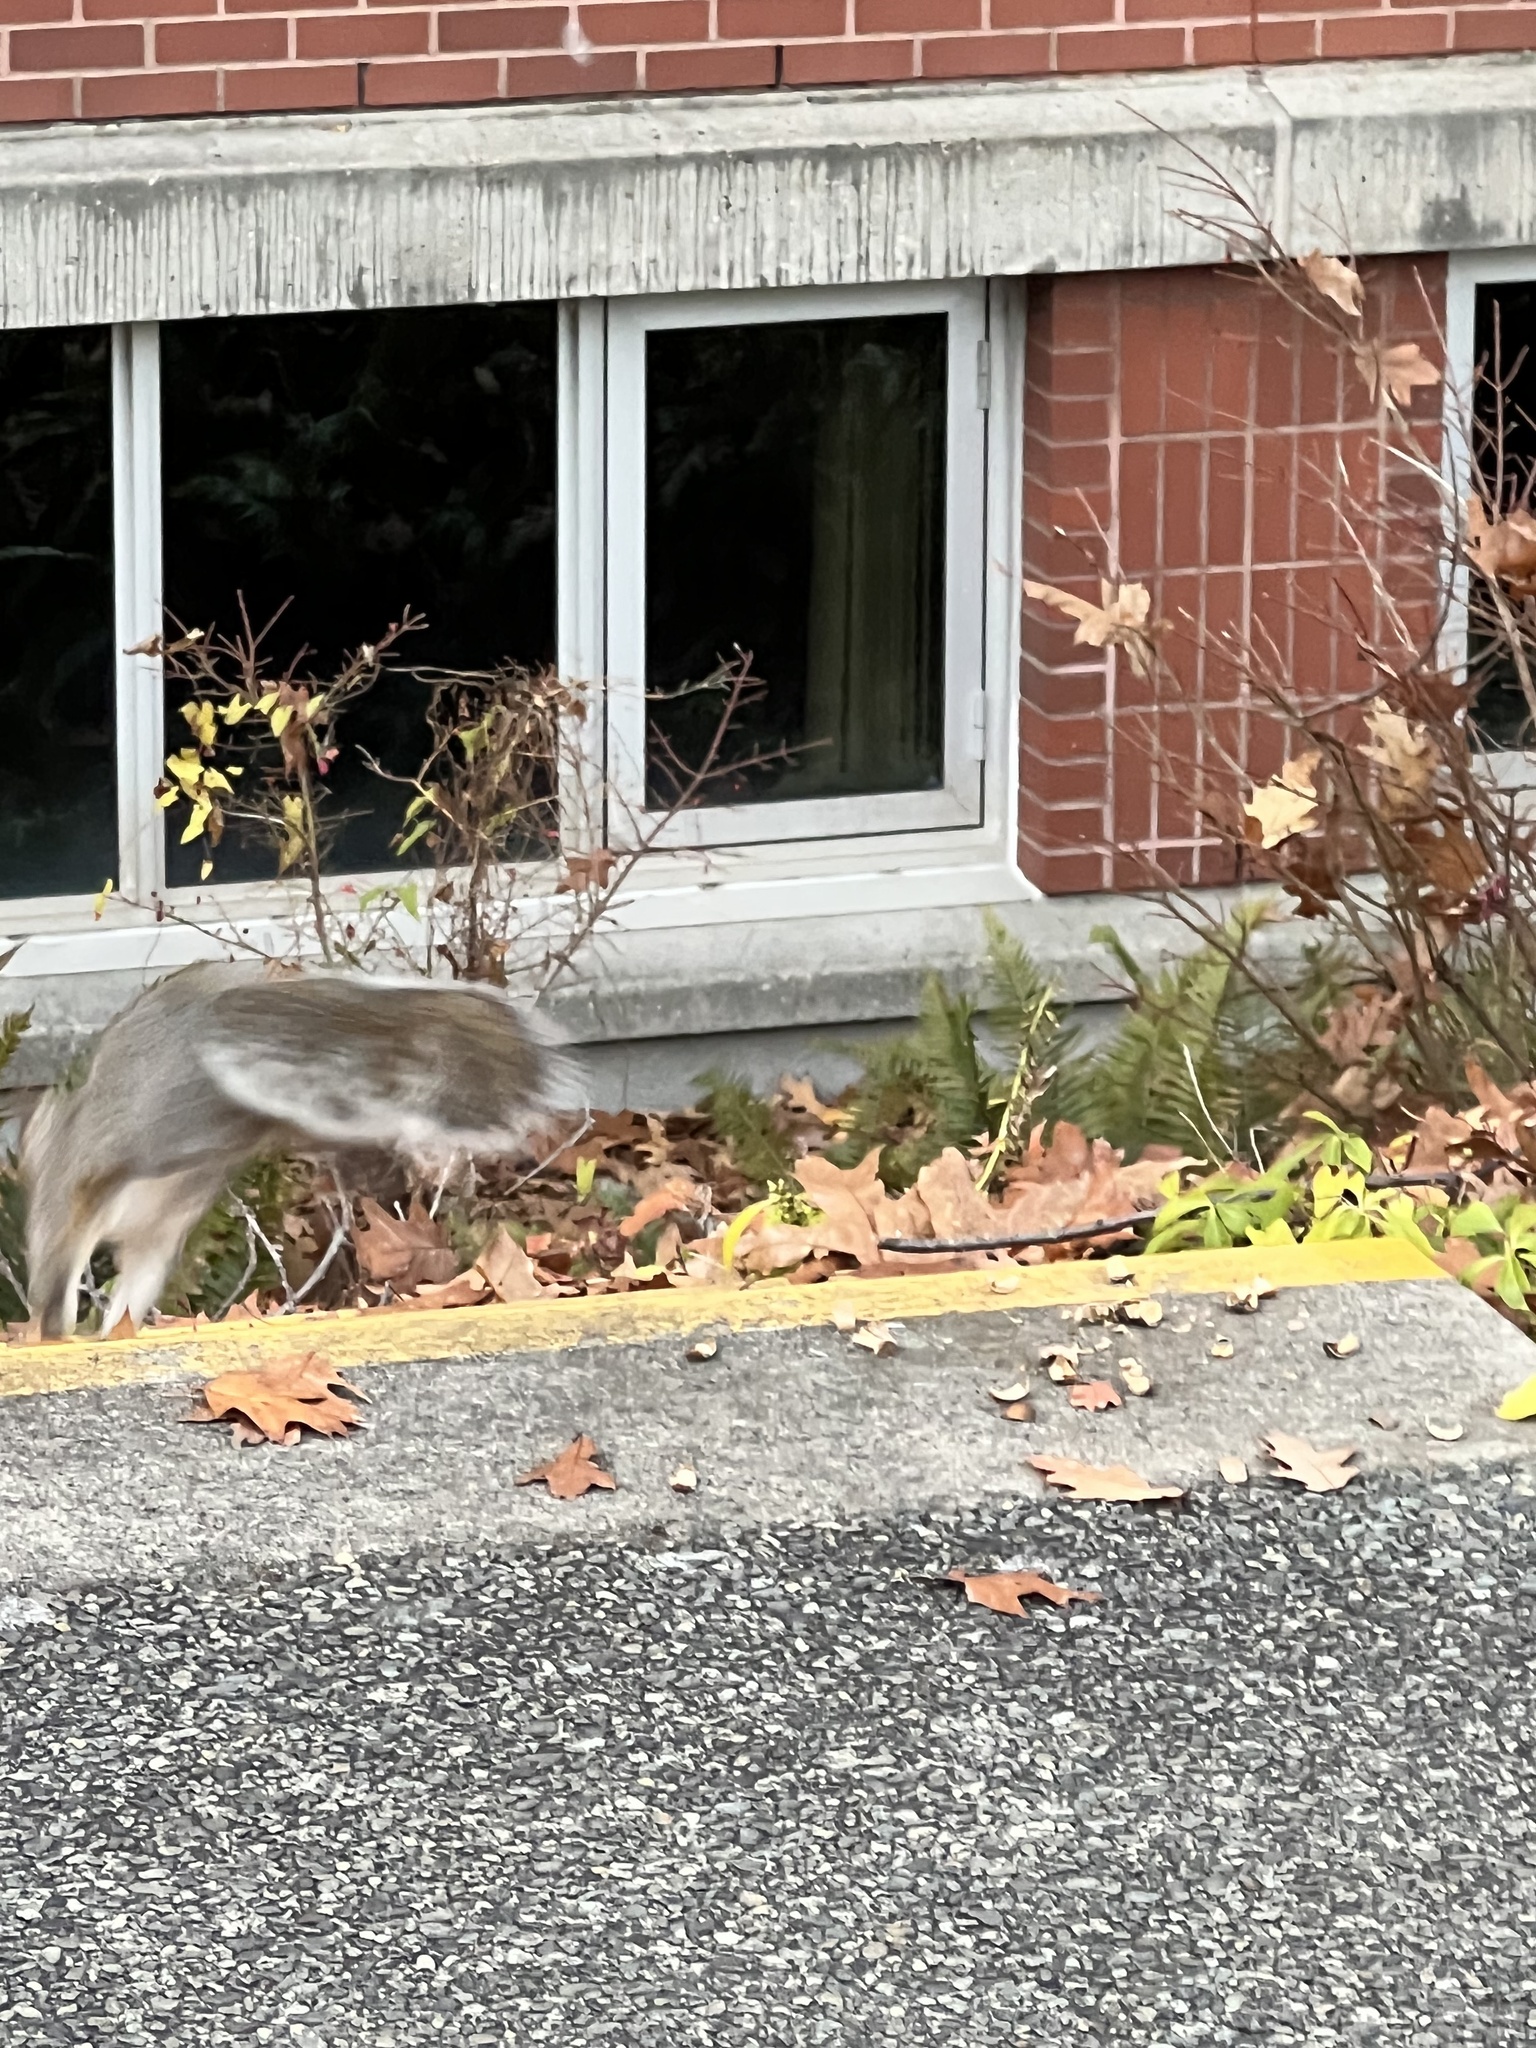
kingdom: Animalia
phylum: Chordata
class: Mammalia
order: Rodentia
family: Sciuridae
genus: Sciurus
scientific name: Sciurus carolinensis
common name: Eastern gray squirrel
